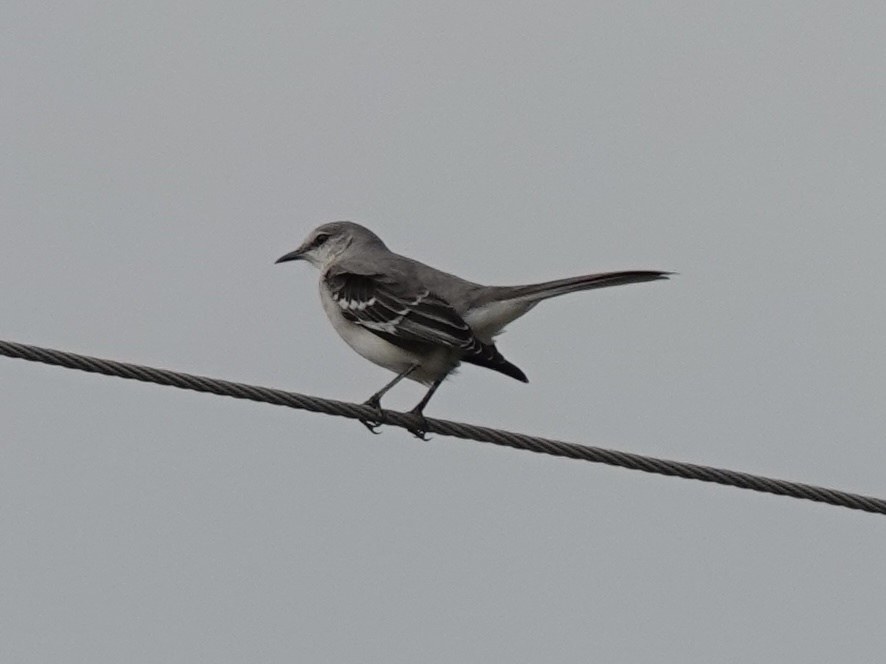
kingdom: Animalia
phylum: Chordata
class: Aves
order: Passeriformes
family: Mimidae
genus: Mimus
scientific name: Mimus polyglottos
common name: Northern mockingbird
